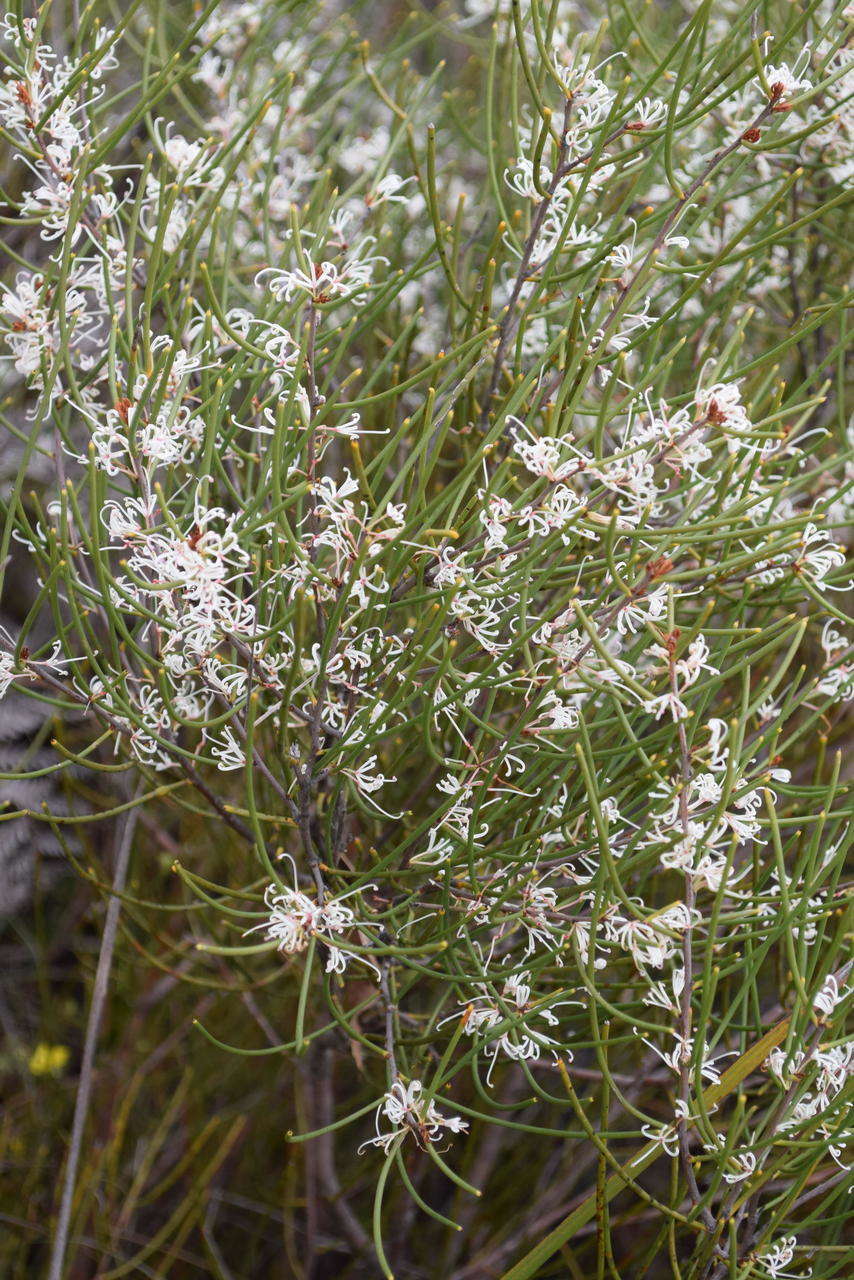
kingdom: Plantae
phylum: Tracheophyta
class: Magnoliopsida
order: Proteales
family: Proteaceae
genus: Hakea
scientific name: Hakea rostrata
